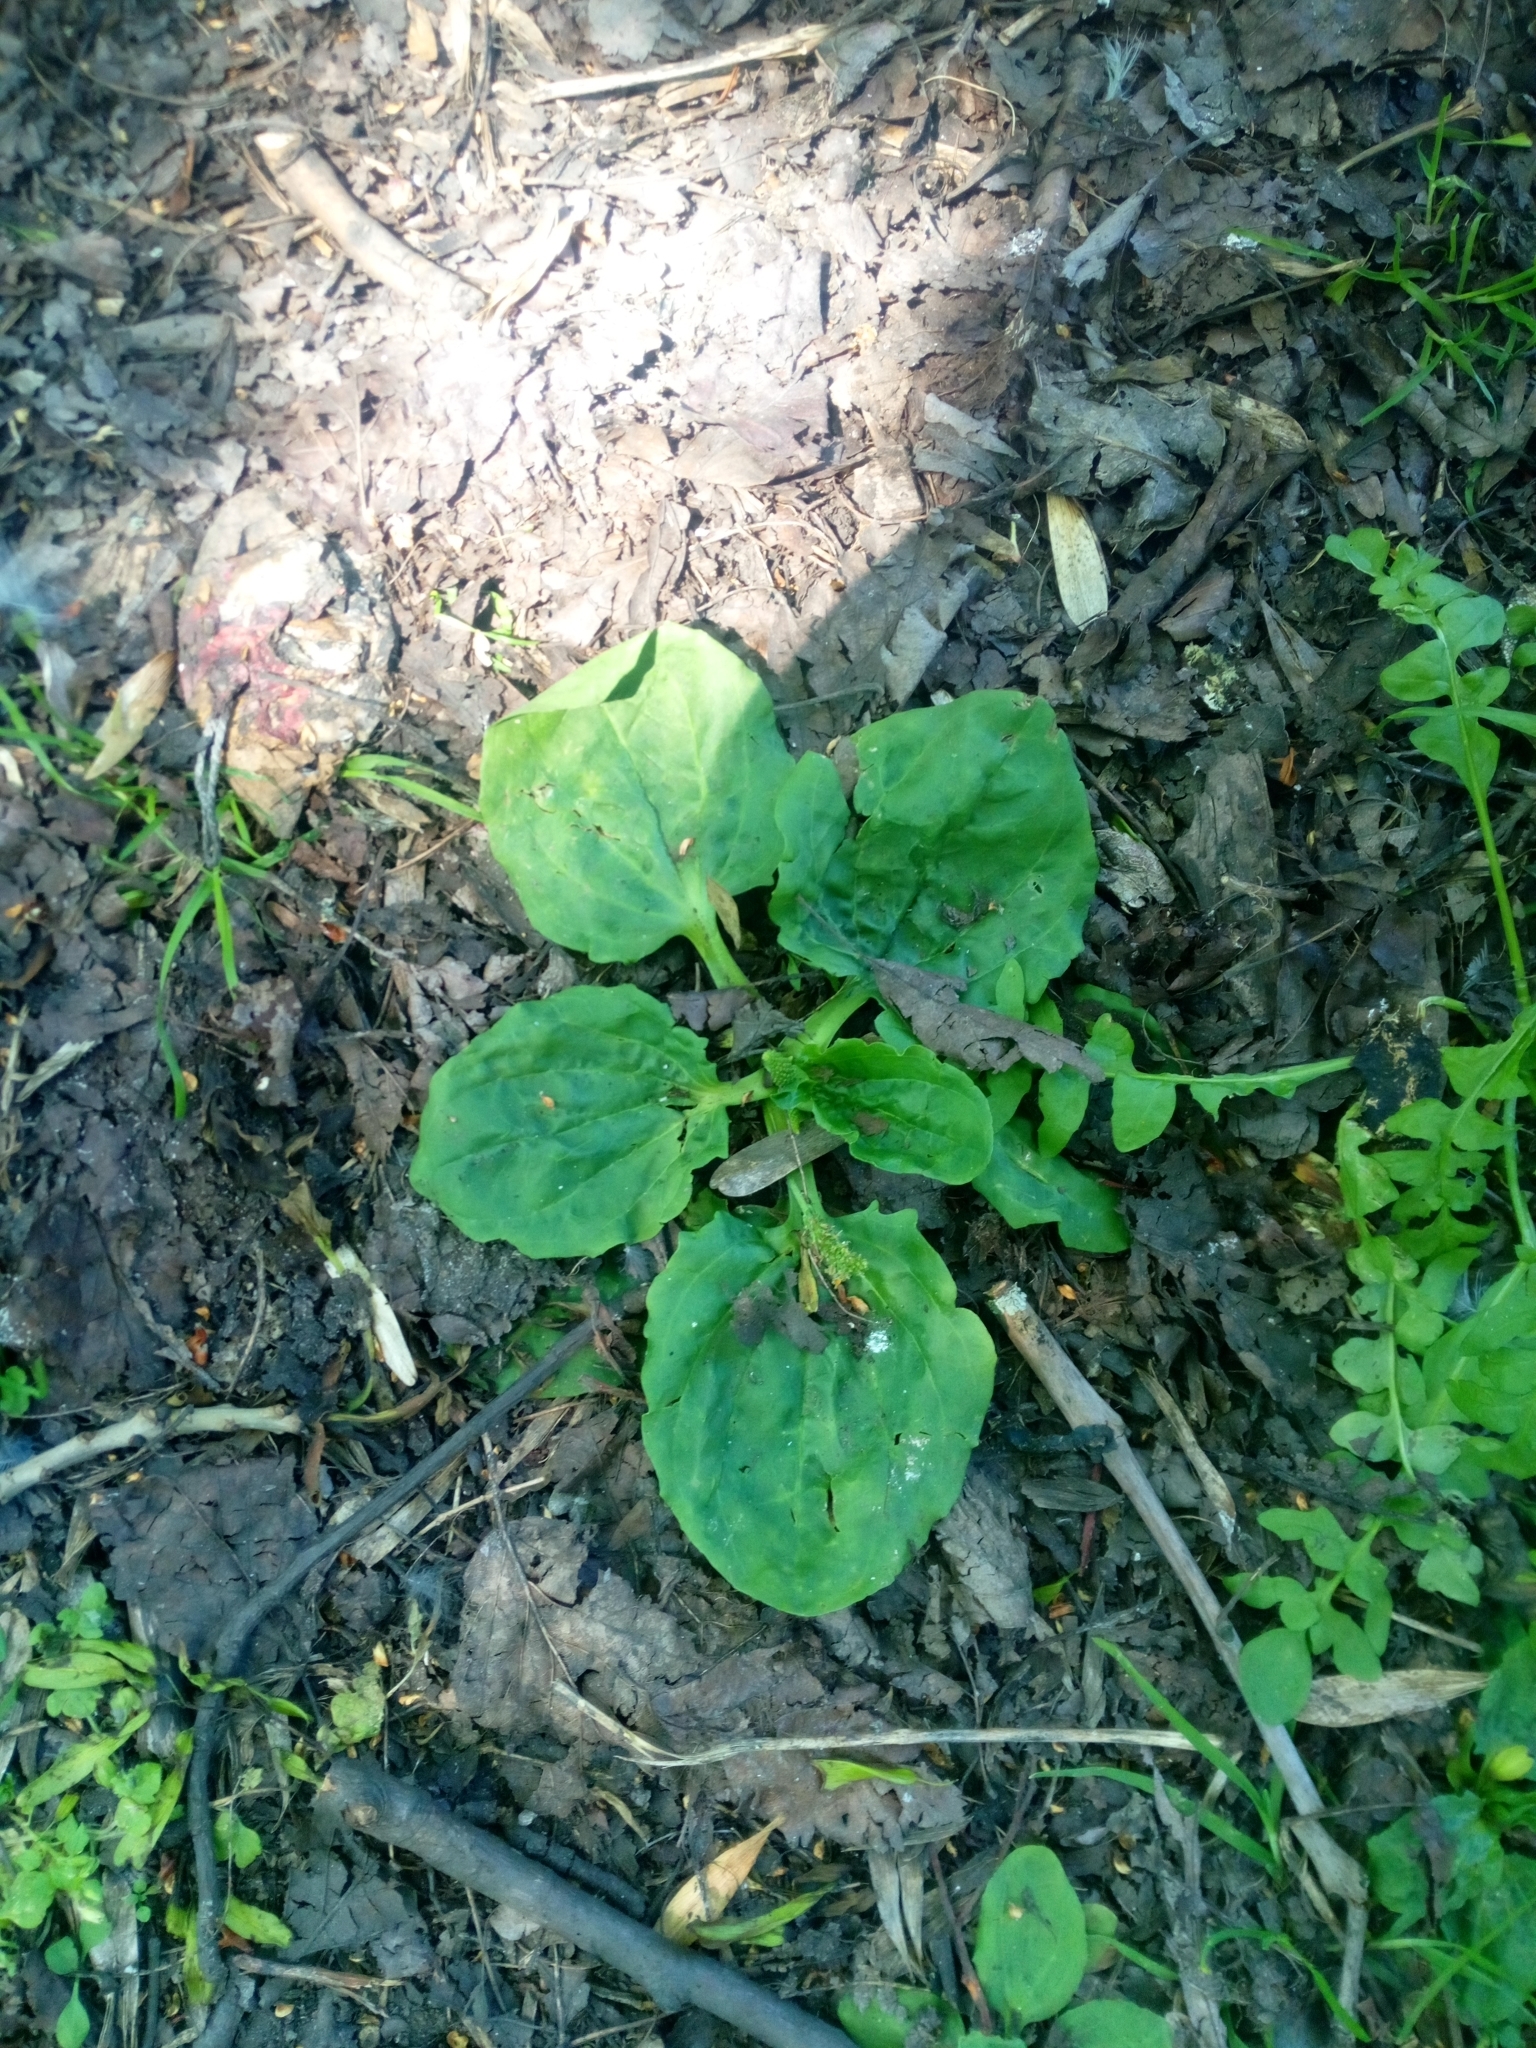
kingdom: Plantae
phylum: Tracheophyta
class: Magnoliopsida
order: Lamiales
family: Plantaginaceae
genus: Plantago
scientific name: Plantago major
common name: Common plantain
